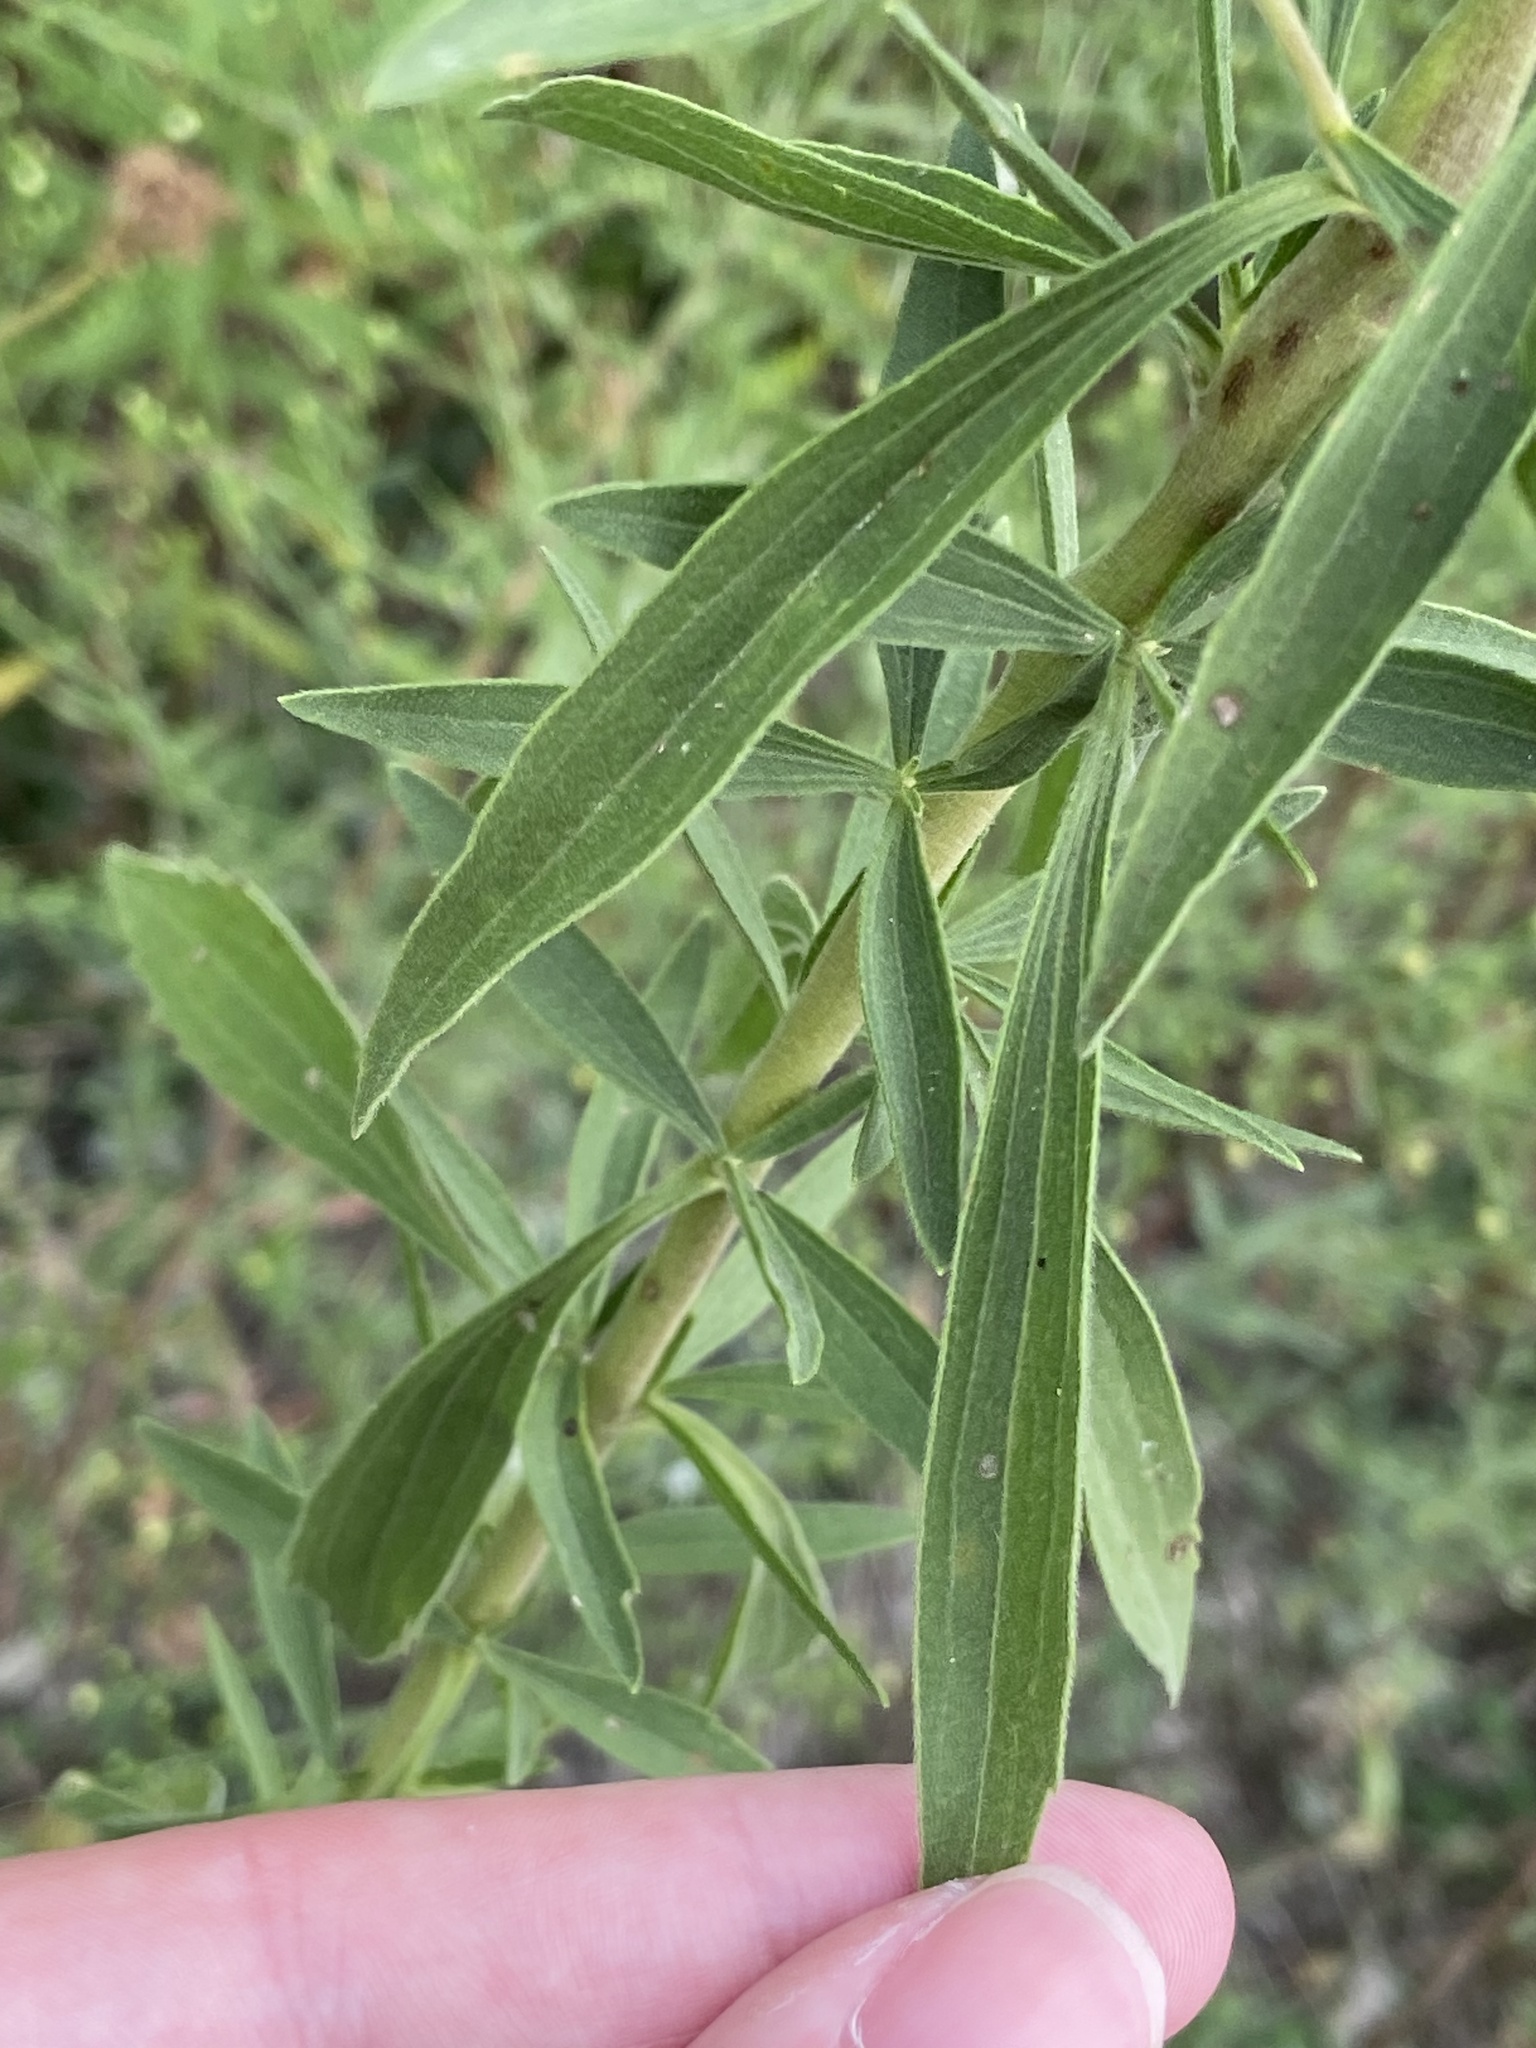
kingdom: Plantae
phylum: Tracheophyta
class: Magnoliopsida
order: Asterales
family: Asteraceae
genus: Eupatorium
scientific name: Eupatorium altissimum
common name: Tall thoroughwort
